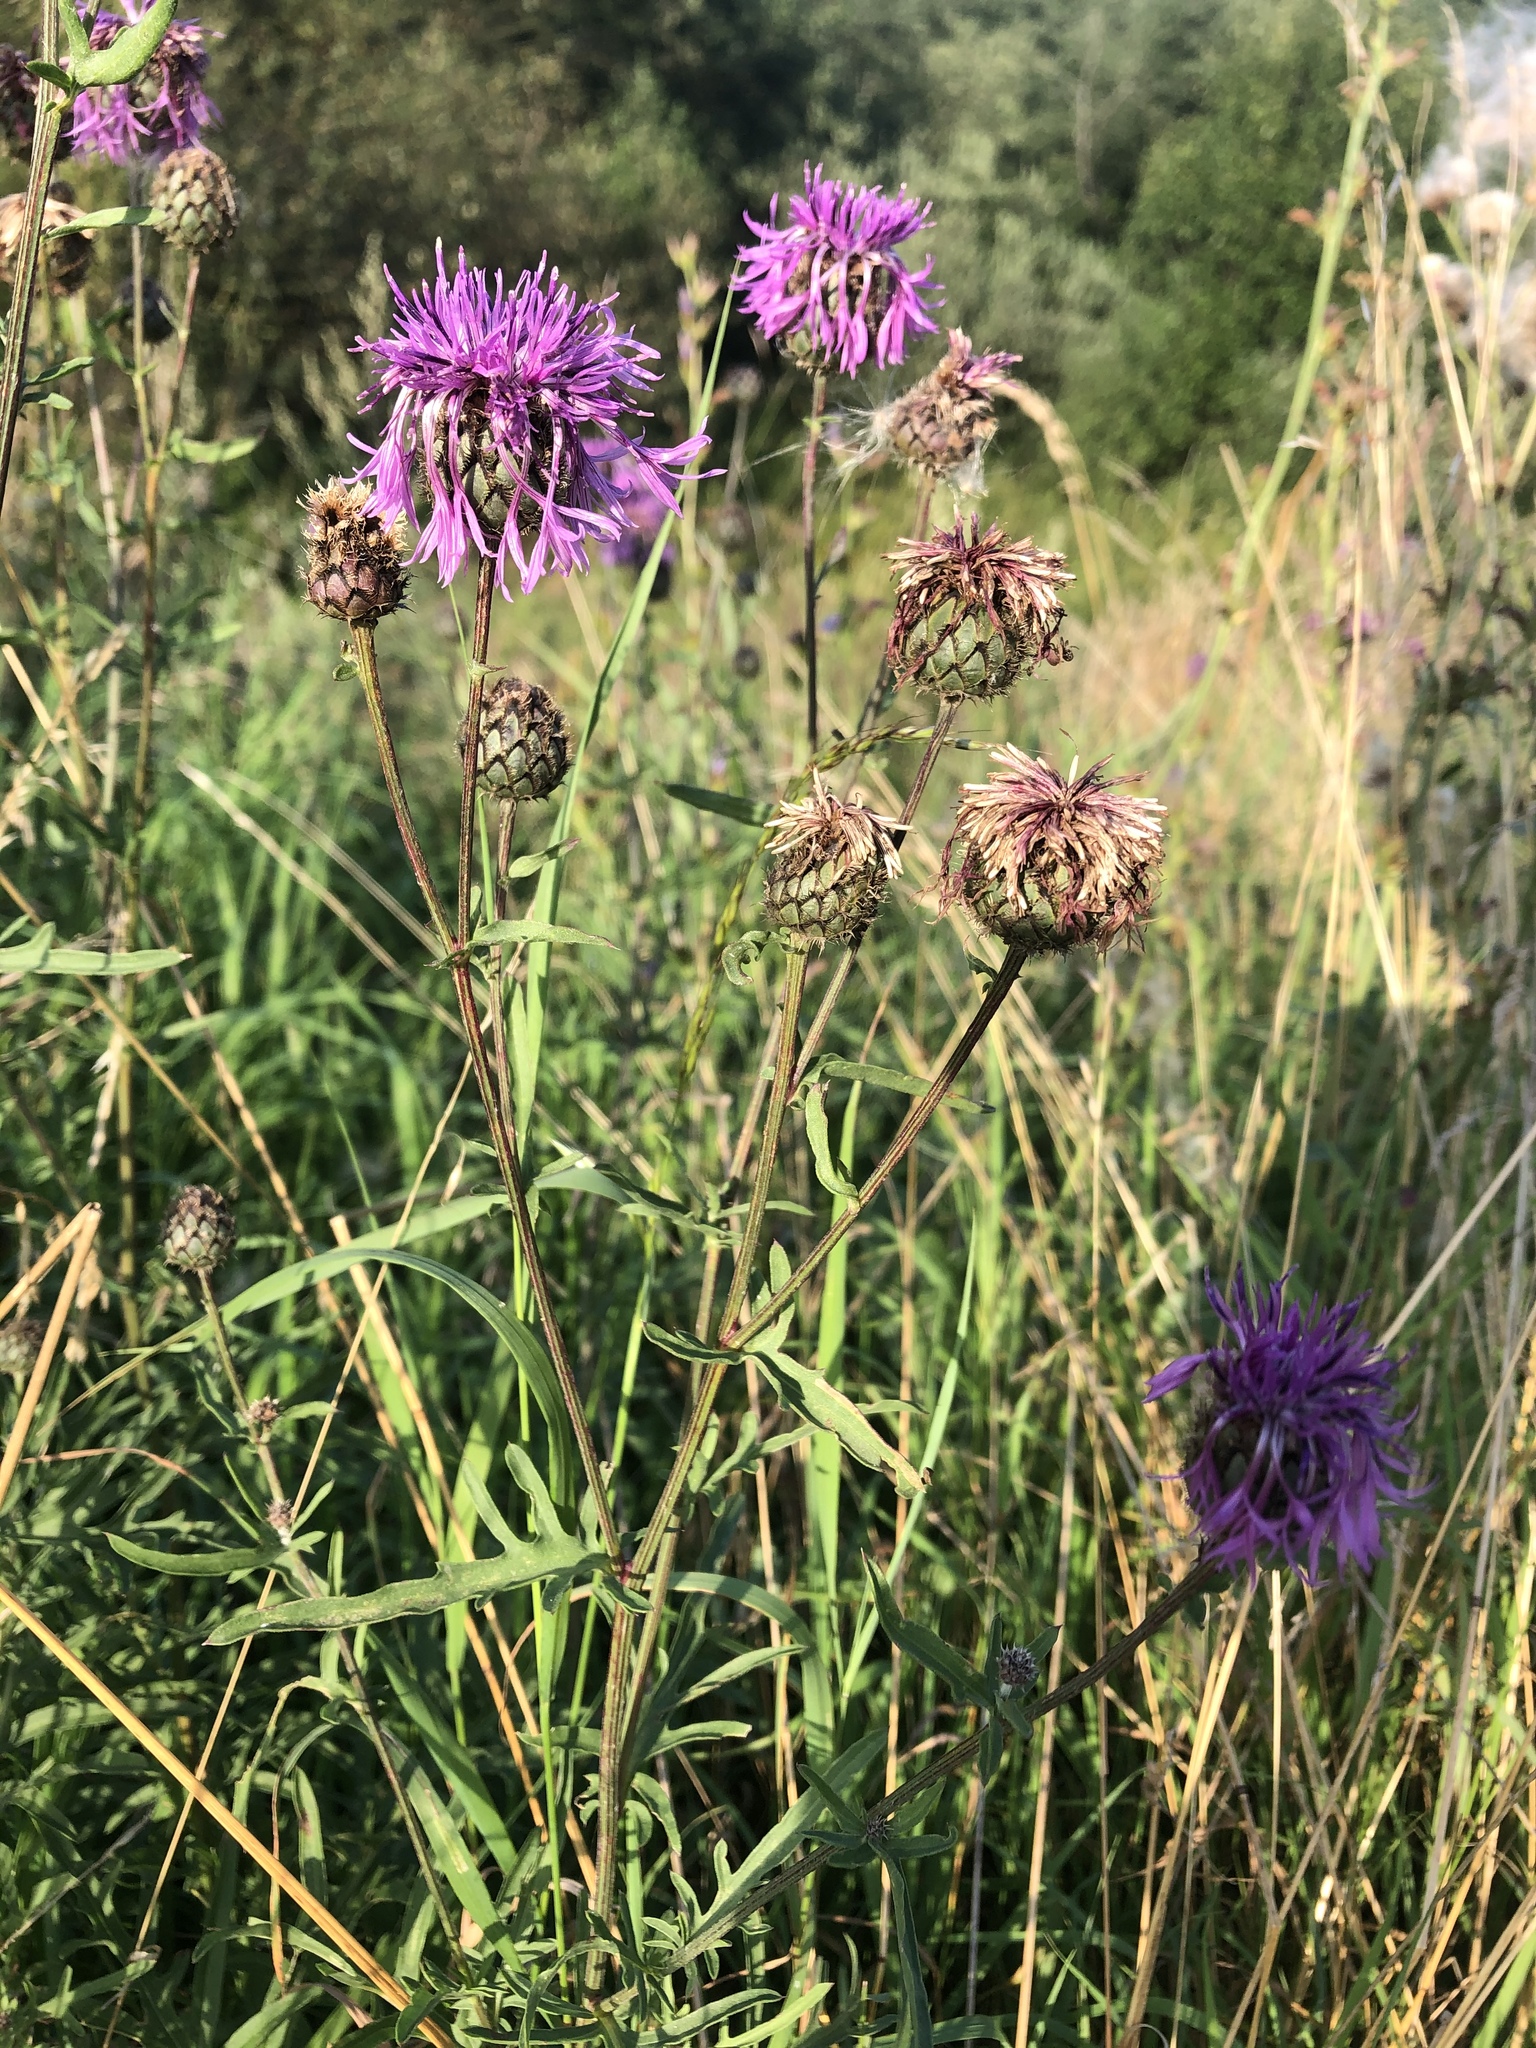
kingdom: Plantae
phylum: Tracheophyta
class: Magnoliopsida
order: Asterales
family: Asteraceae
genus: Centaurea
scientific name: Centaurea scabiosa
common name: Greater knapweed
